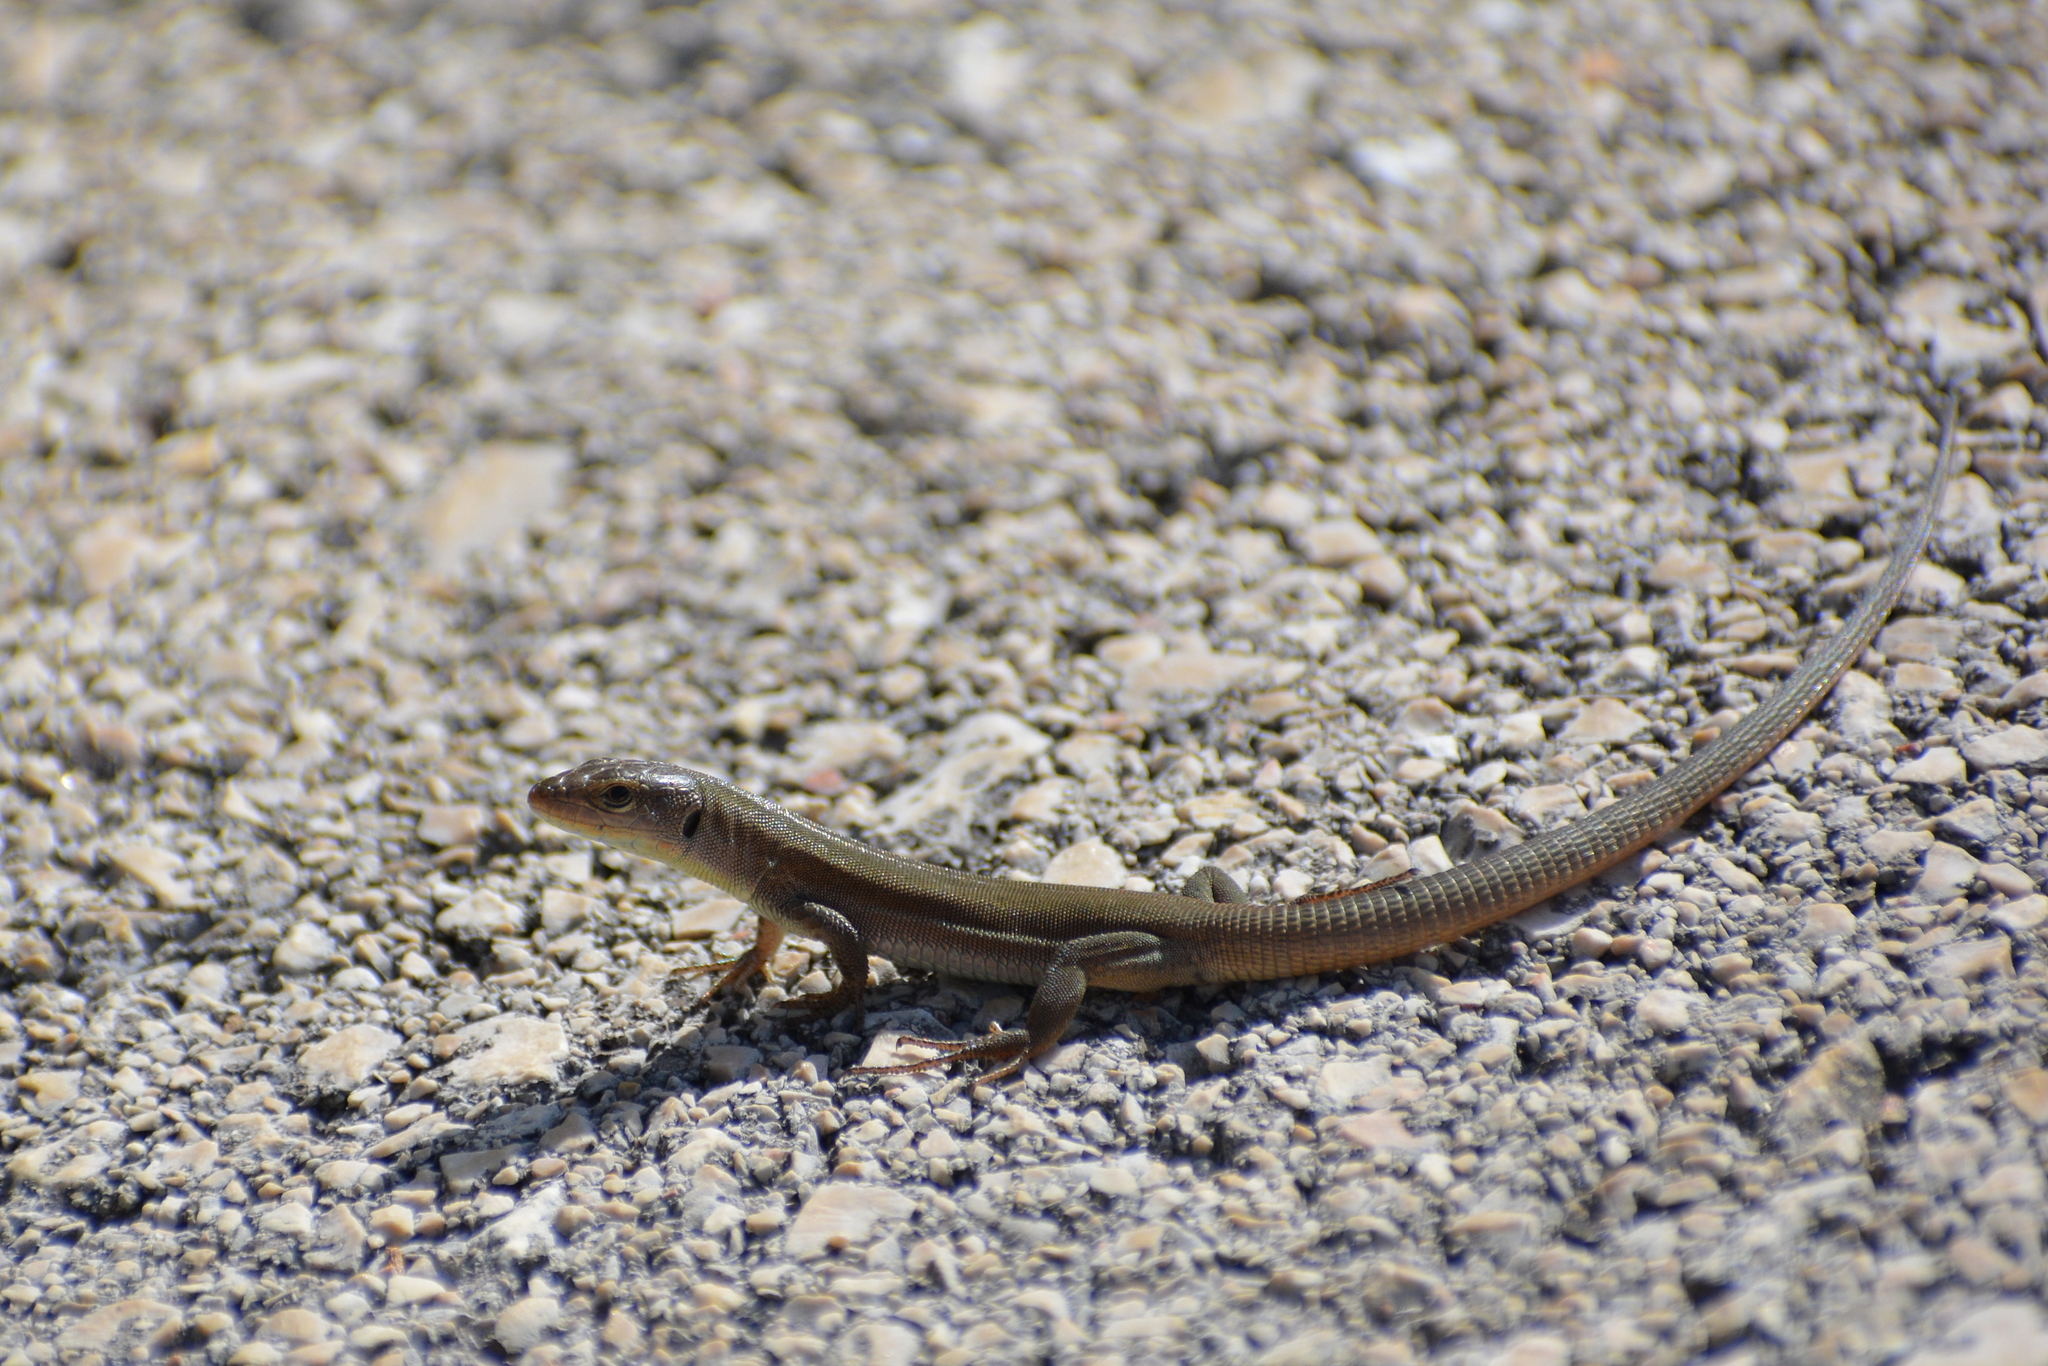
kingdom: Animalia
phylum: Chordata
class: Squamata
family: Lacertidae
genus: Podarcis
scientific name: Podarcis melisellensis
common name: Dalmatian wall lizard
